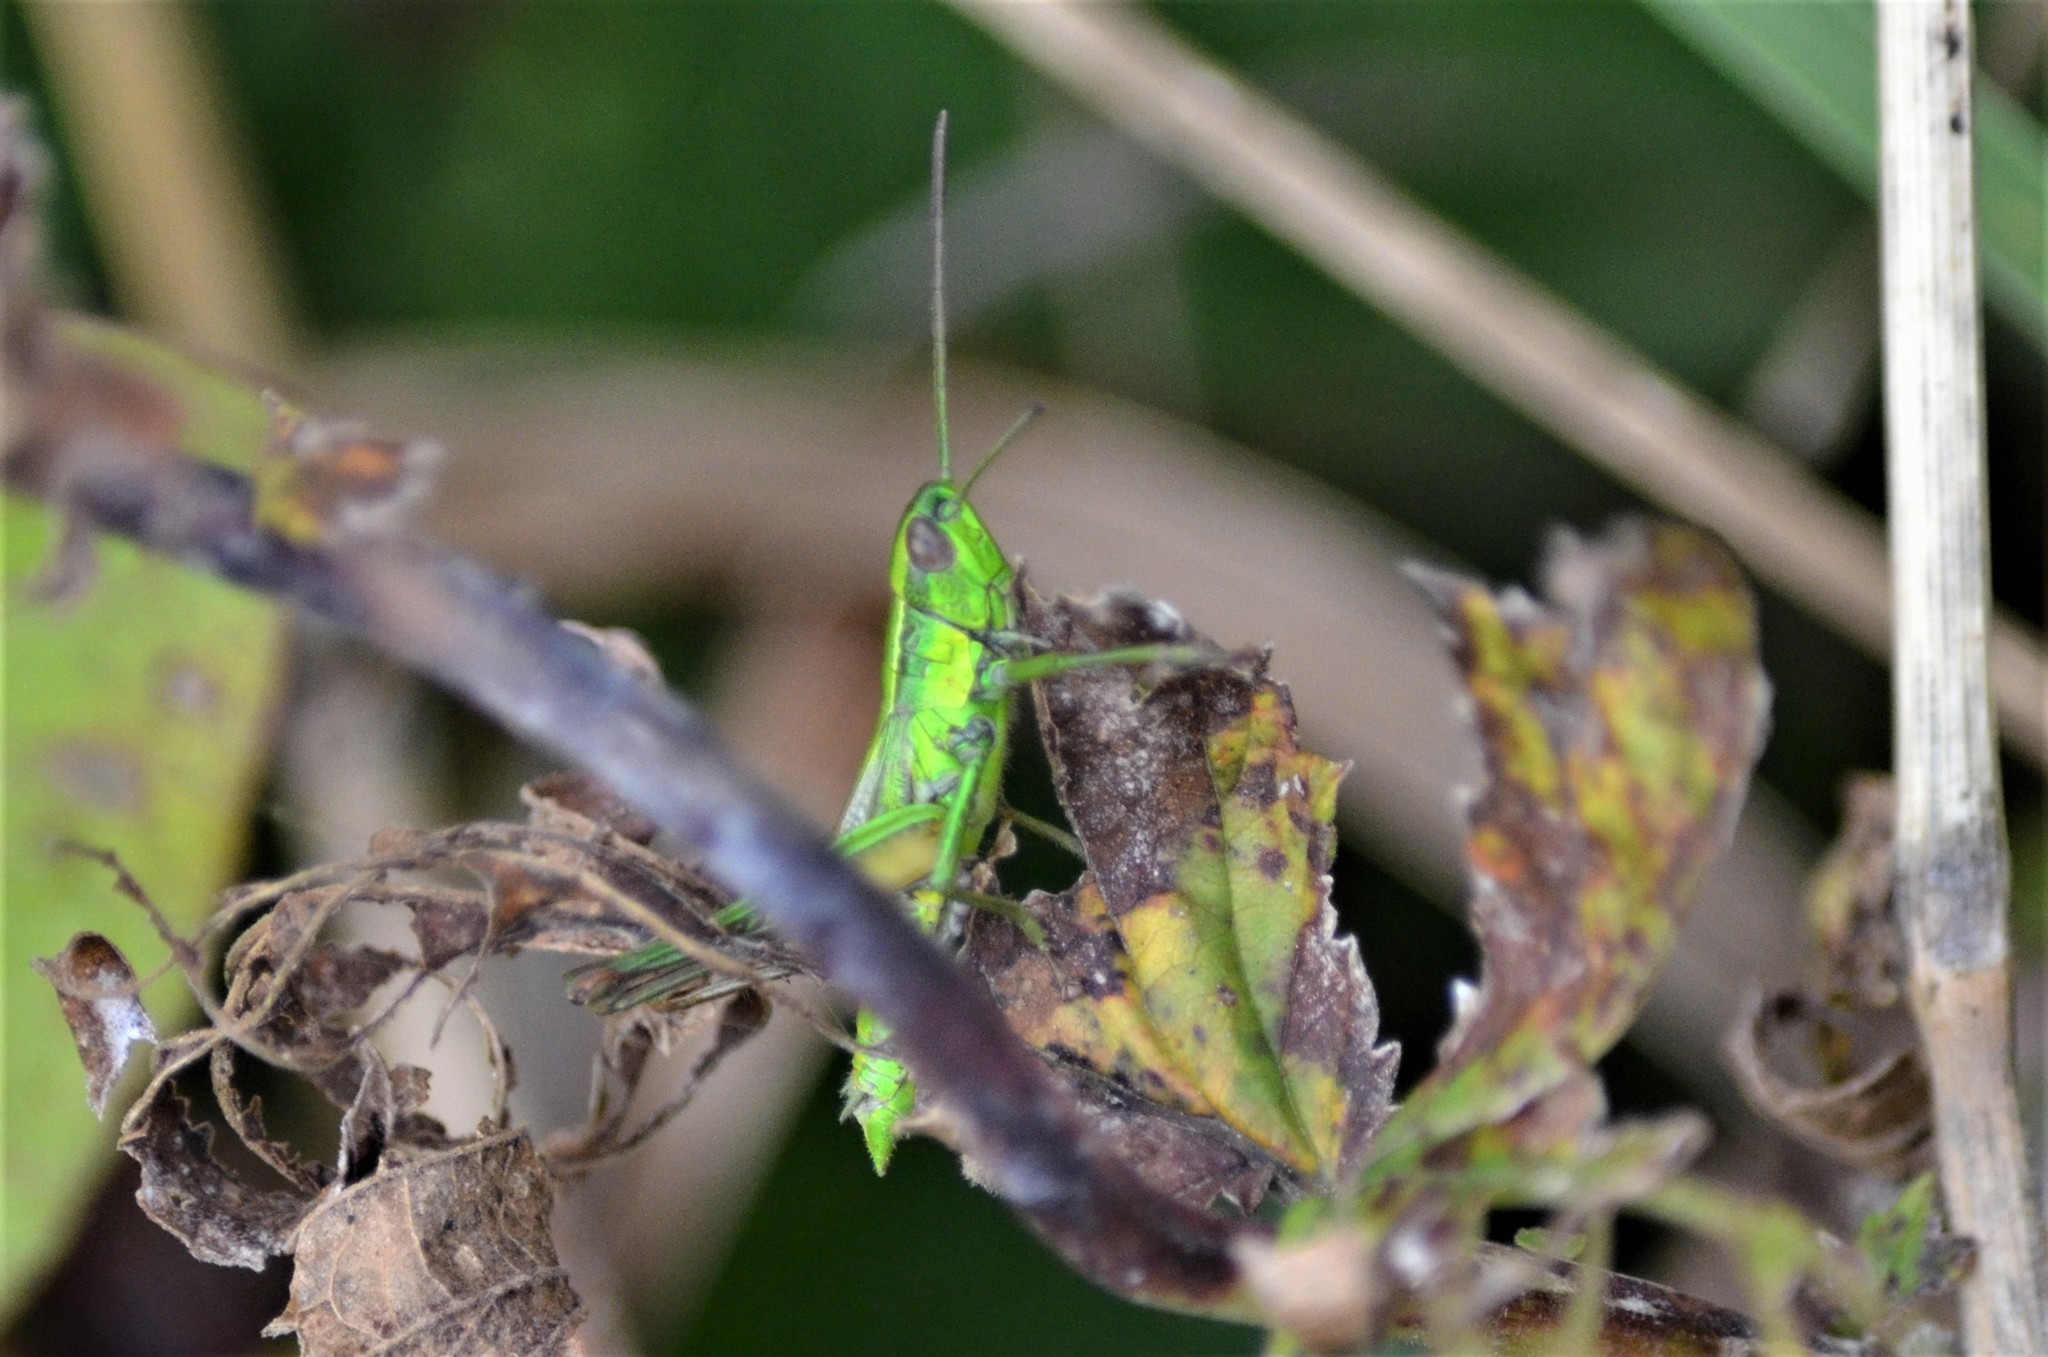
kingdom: Animalia
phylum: Arthropoda
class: Insecta
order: Orthoptera
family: Acrididae
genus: Euthystira
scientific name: Euthystira brachyptera
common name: Small gold grasshopper
